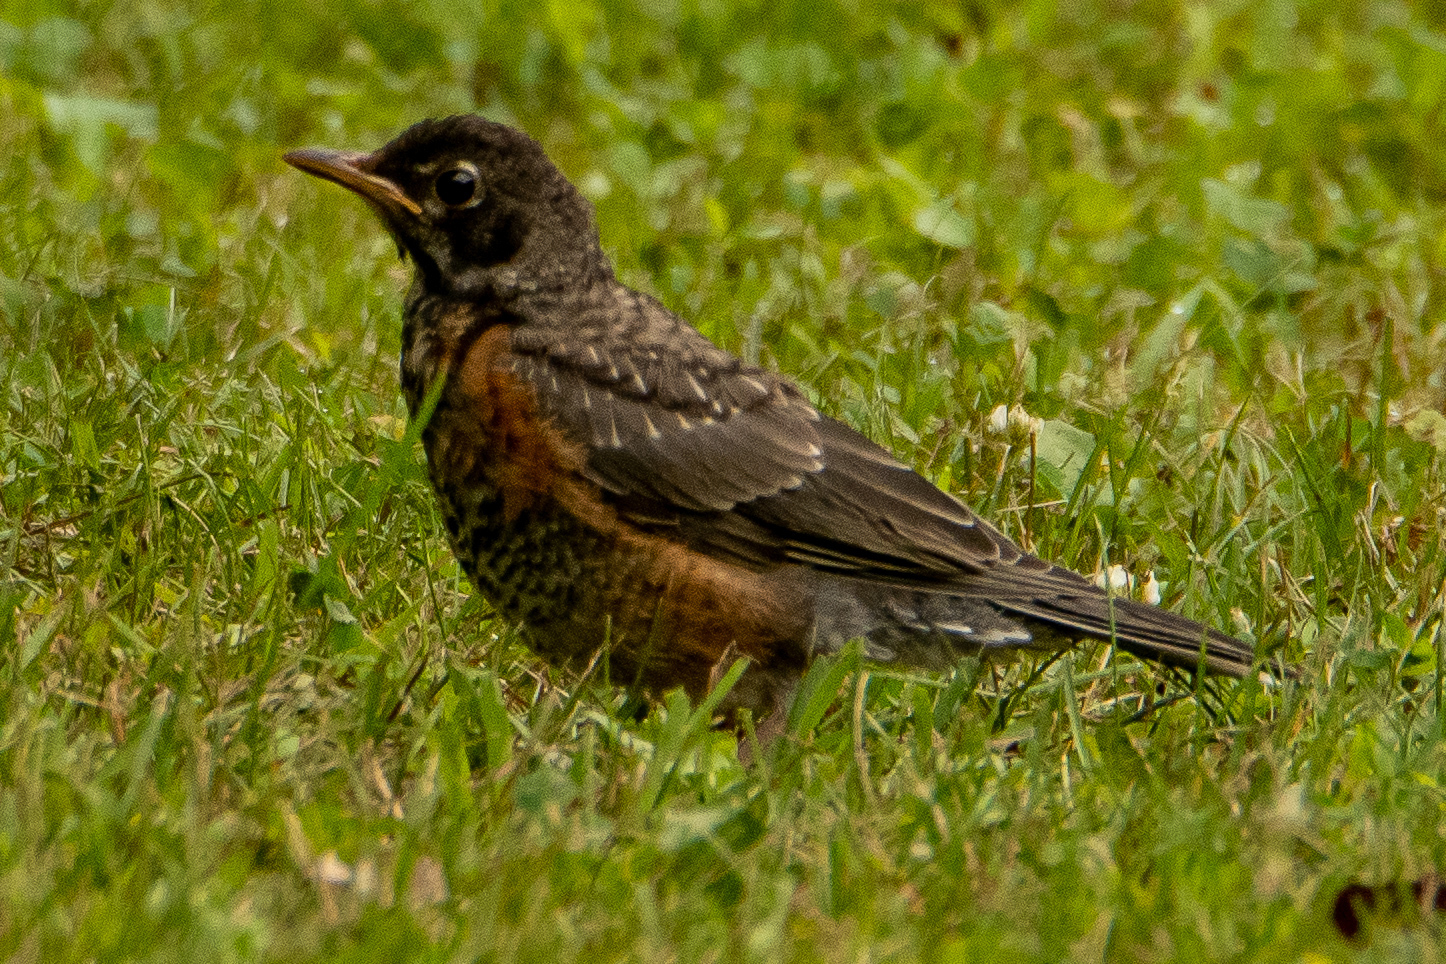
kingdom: Animalia
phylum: Chordata
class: Aves
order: Passeriformes
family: Turdidae
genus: Turdus
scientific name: Turdus migratorius
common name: American robin
